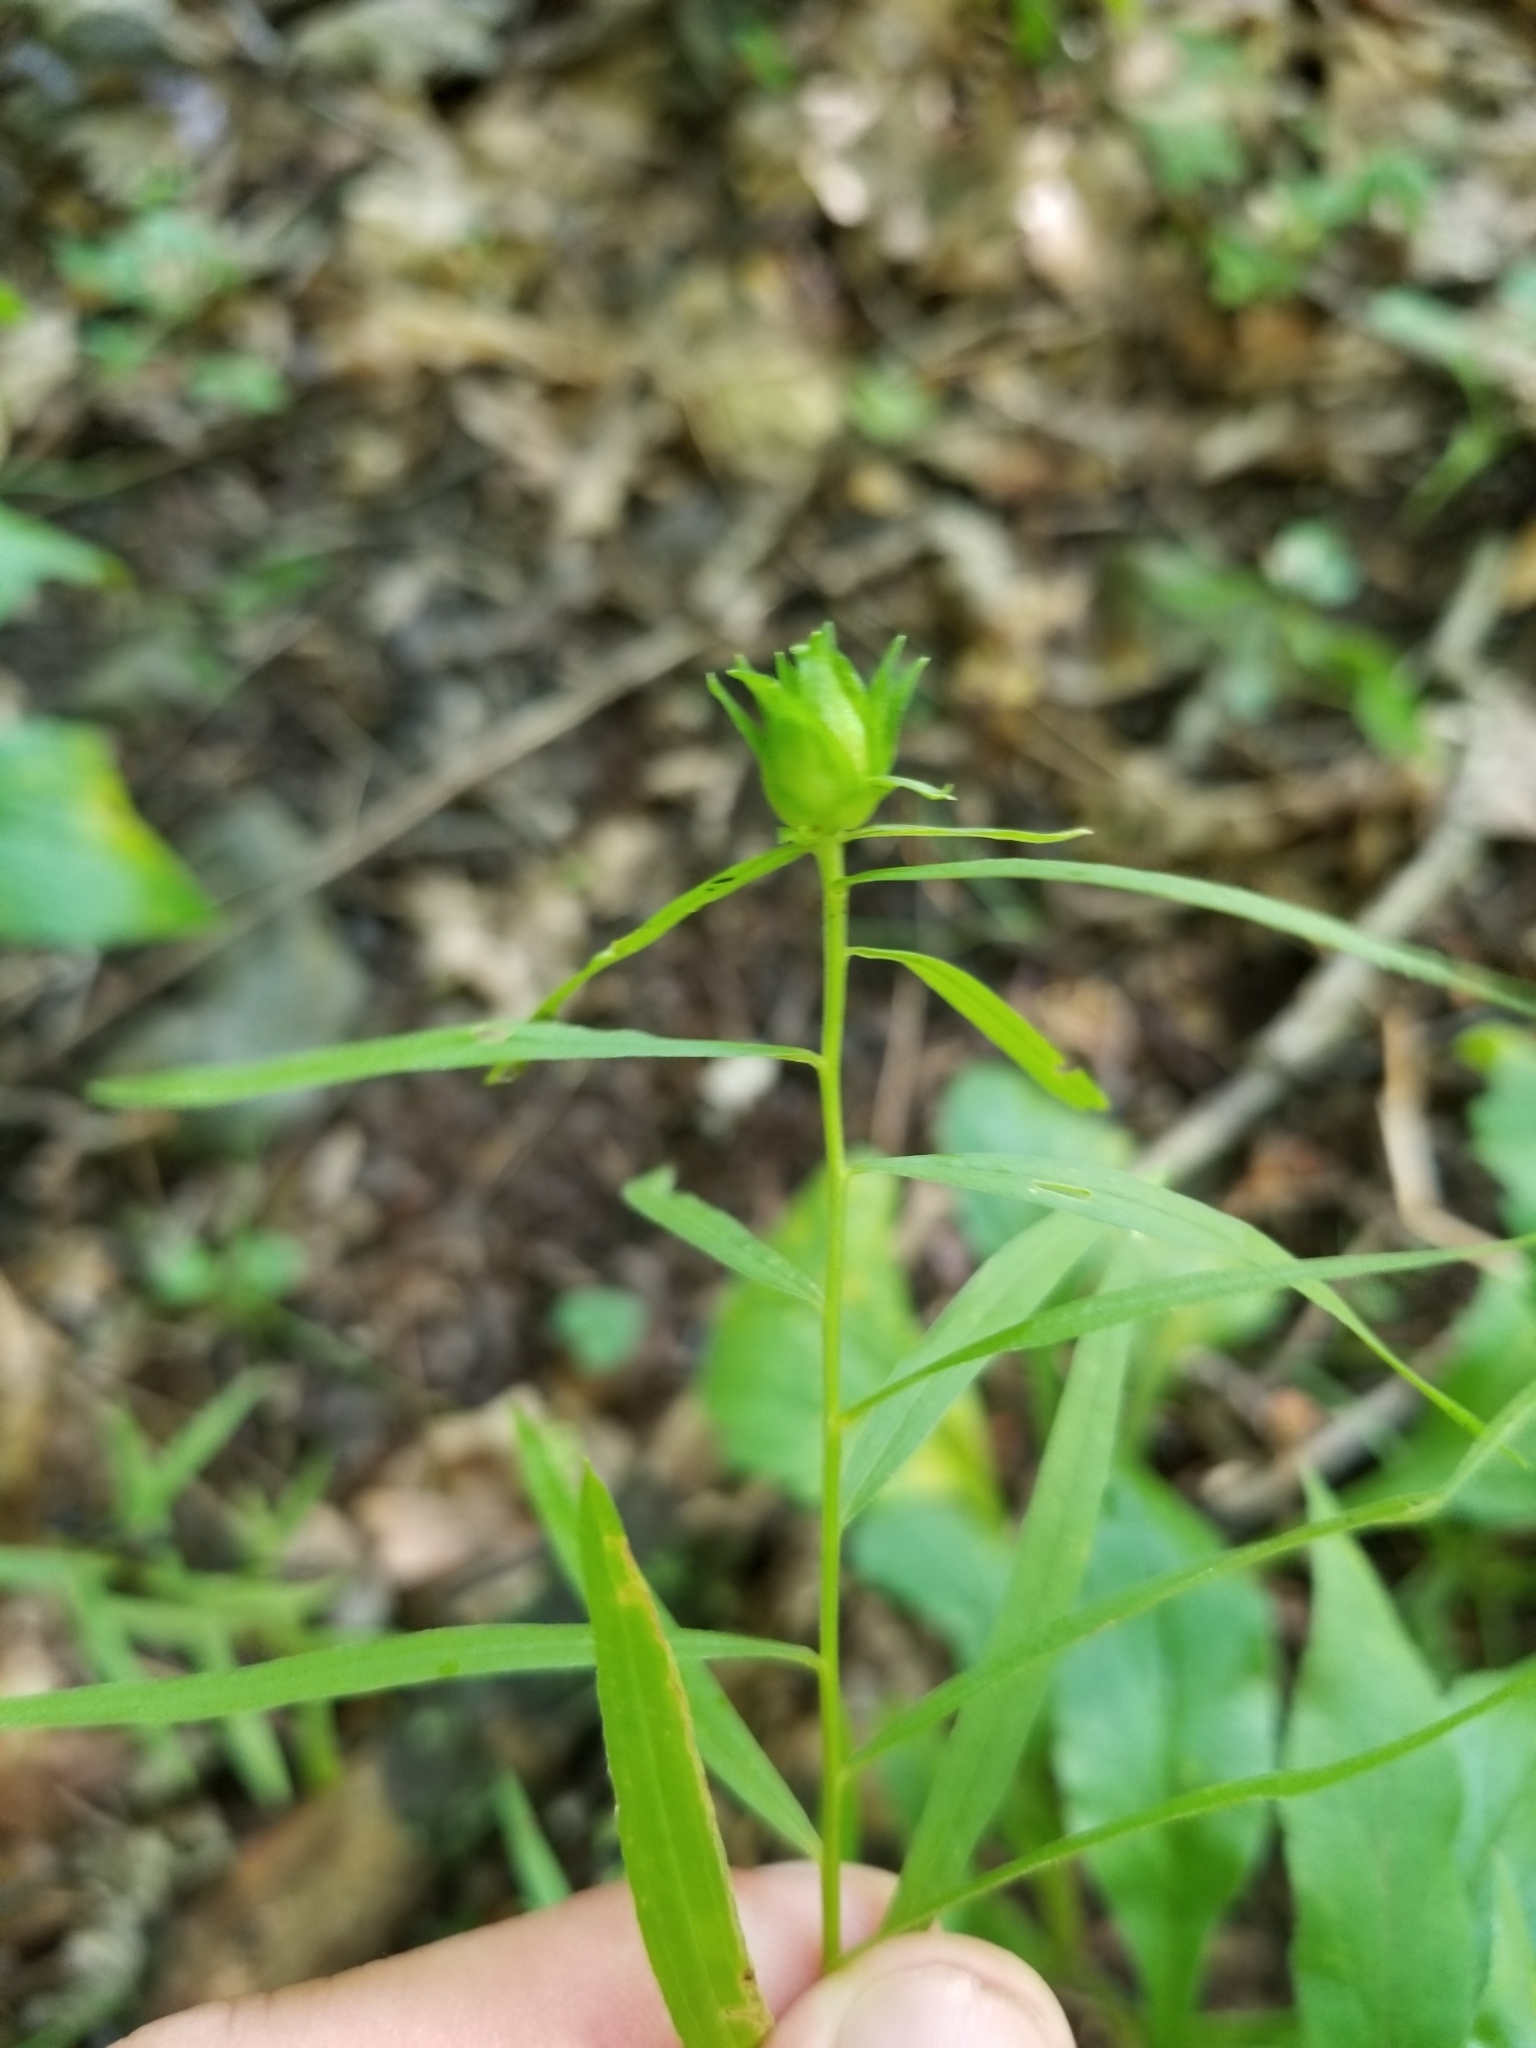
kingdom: Animalia
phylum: Arthropoda
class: Insecta
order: Diptera
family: Cecidomyiidae
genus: Asphondylia
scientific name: Asphondylia pseudorosa
